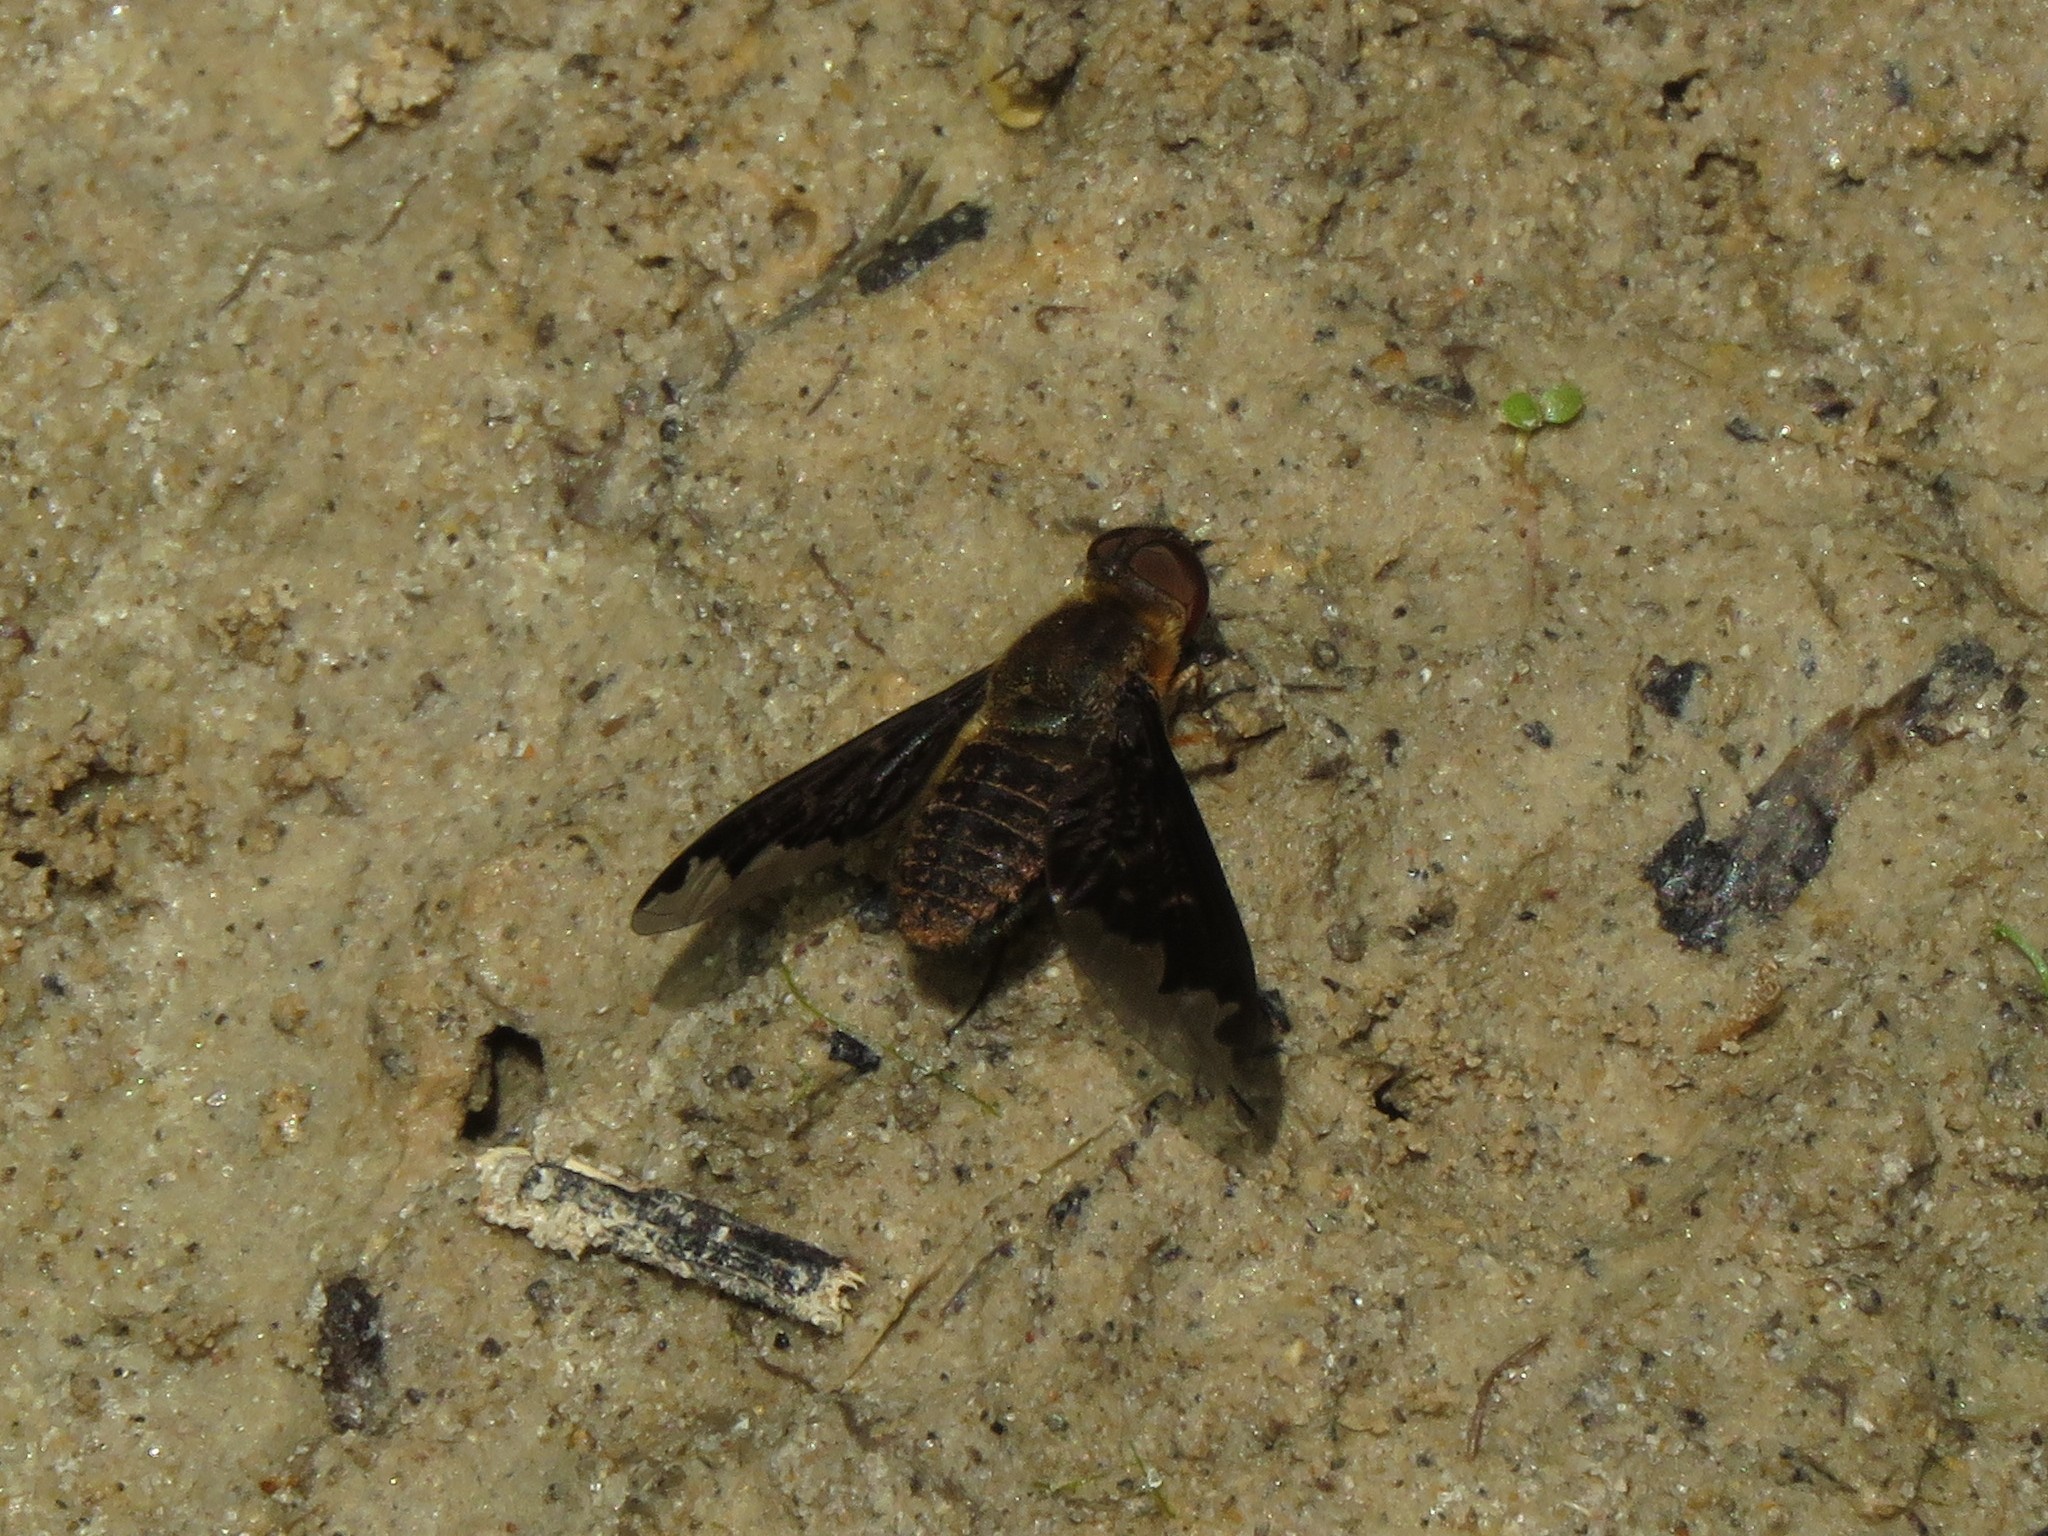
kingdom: Animalia
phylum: Arthropoda
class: Insecta
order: Diptera
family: Bombyliidae
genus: Hemipenthes
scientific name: Hemipenthes sinuosus
